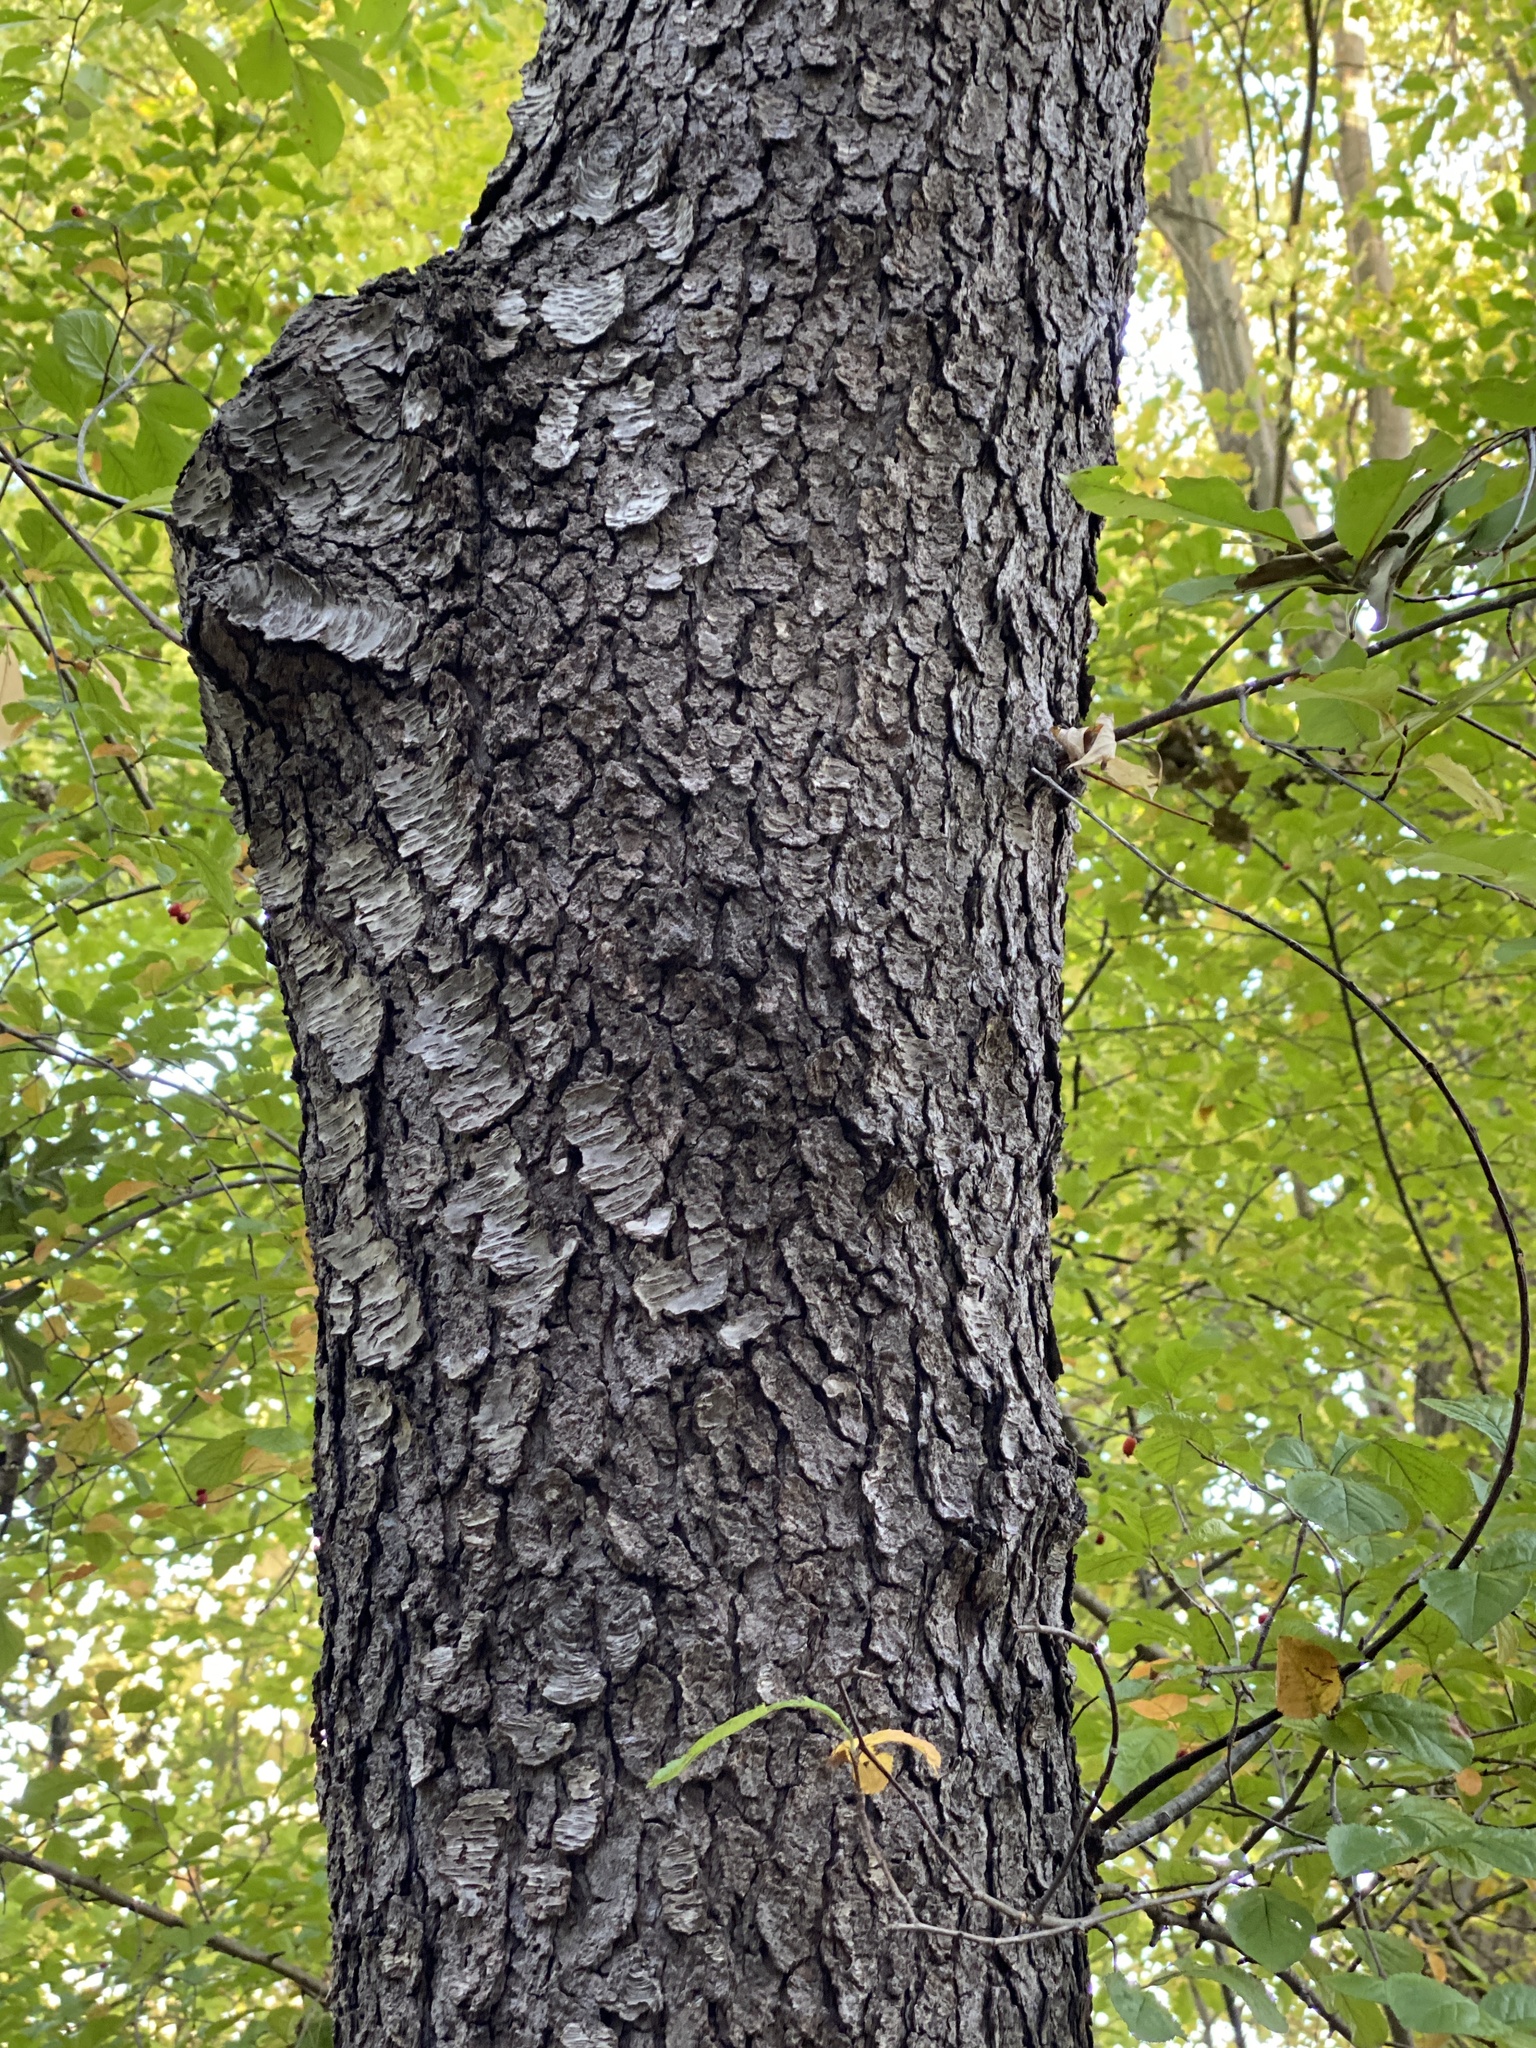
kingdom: Plantae
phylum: Tracheophyta
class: Magnoliopsida
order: Rosales
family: Rosaceae
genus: Prunus
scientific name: Prunus serotina
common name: Black cherry
